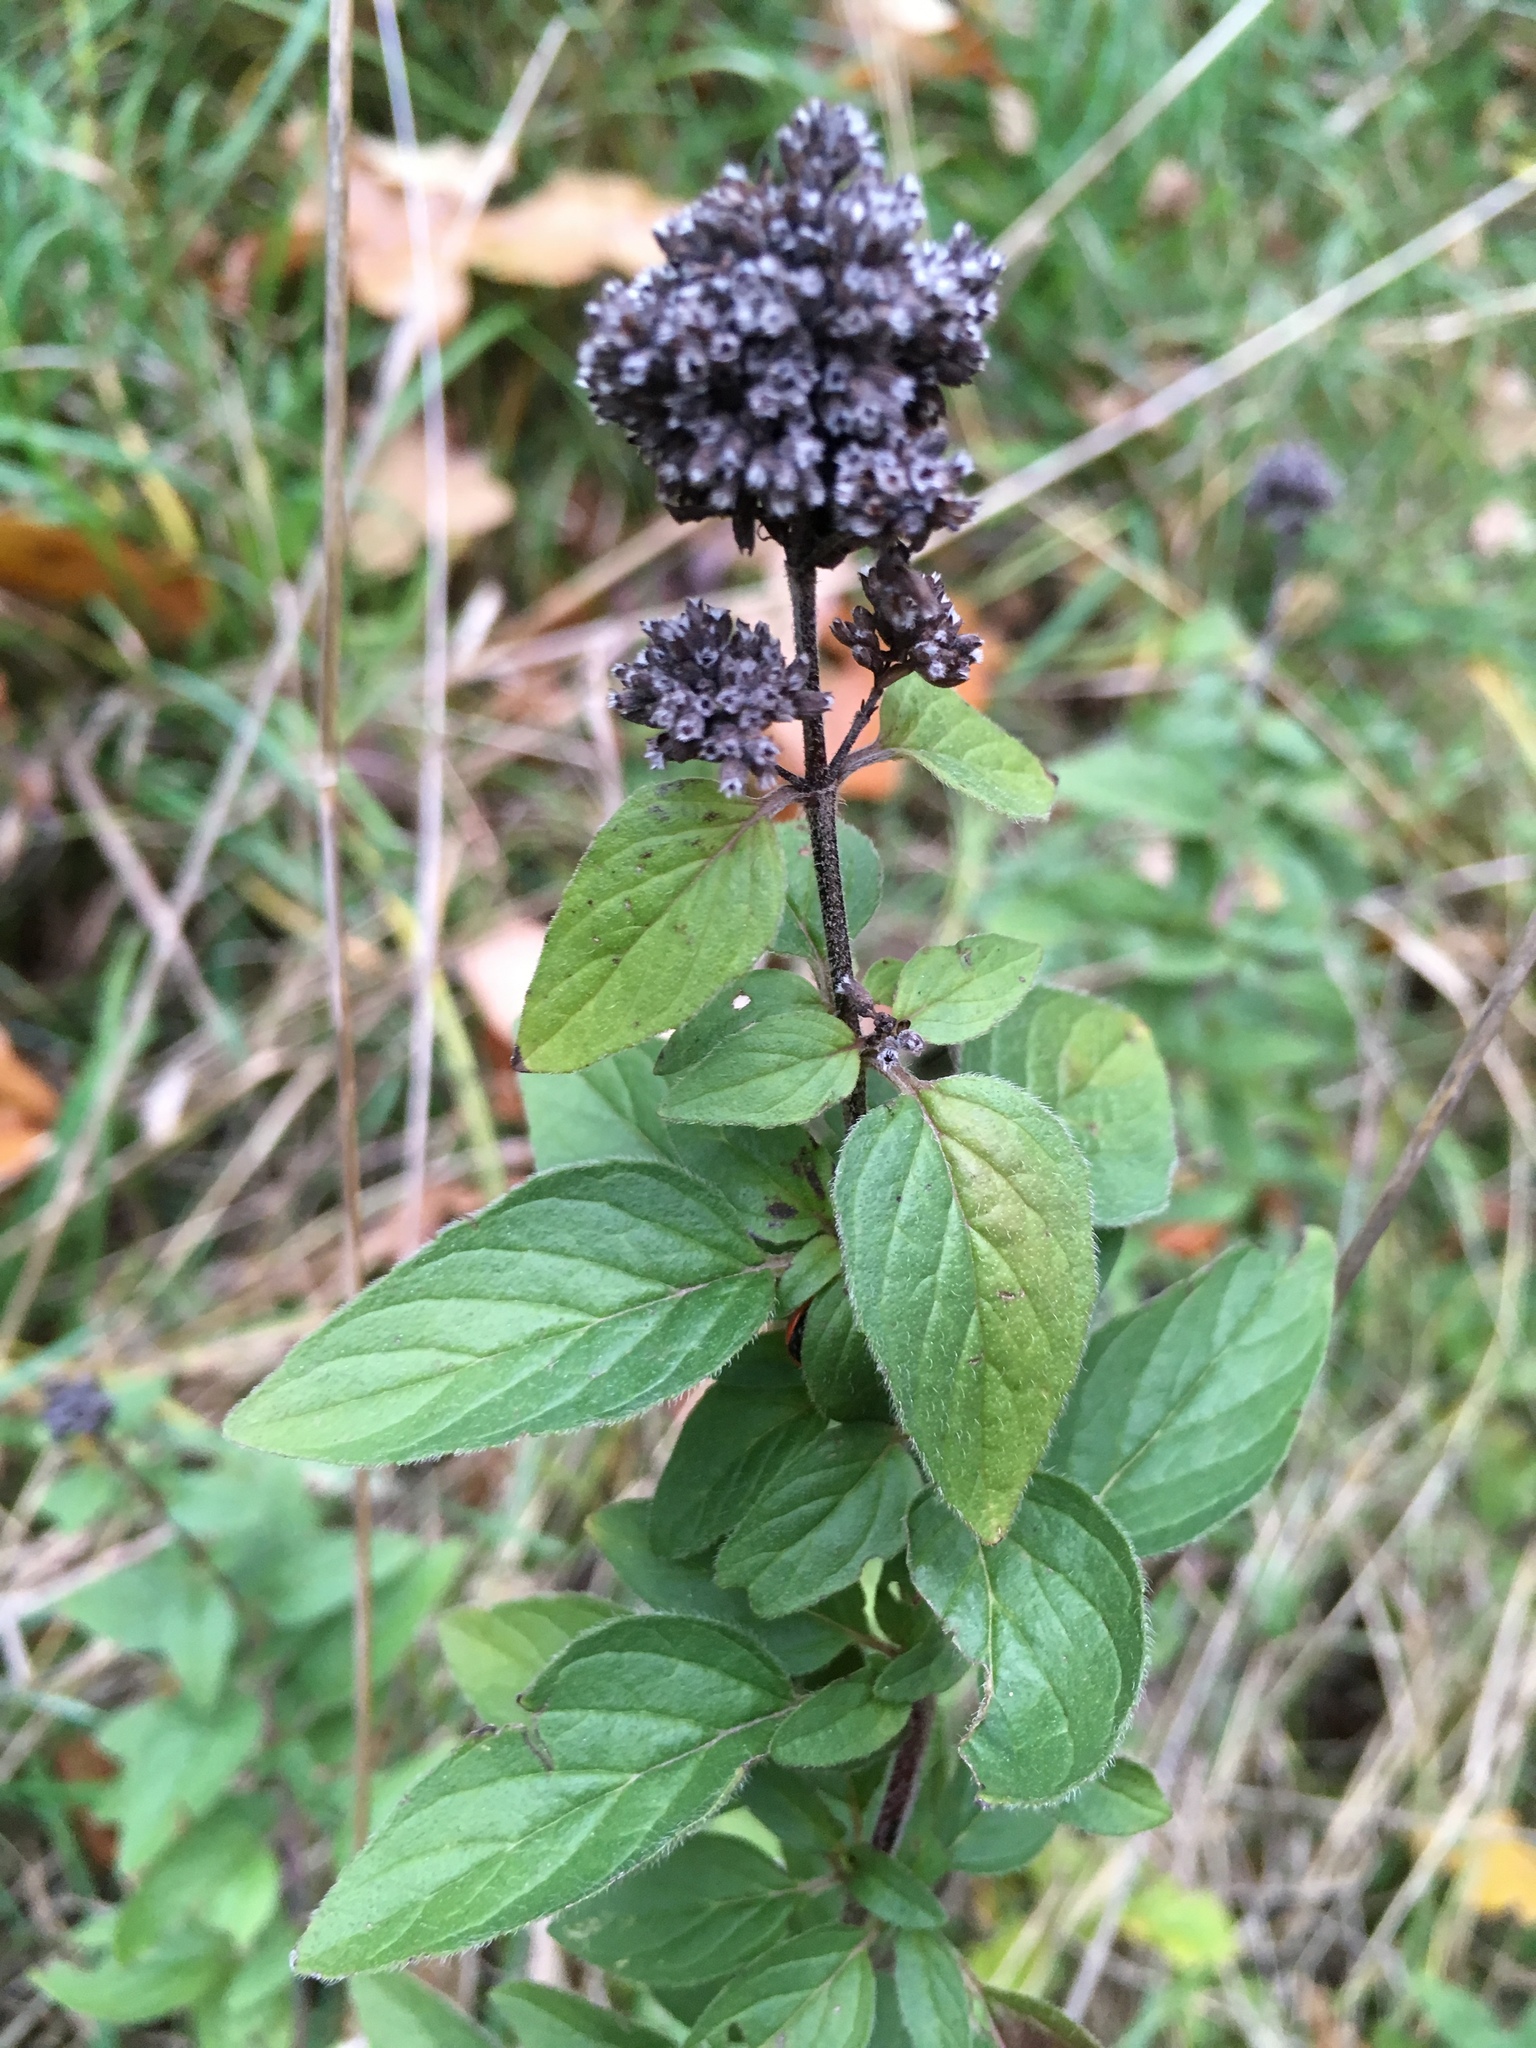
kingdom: Plantae
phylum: Tracheophyta
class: Magnoliopsida
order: Lamiales
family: Lamiaceae
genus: Origanum
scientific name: Origanum vulgare
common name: Wild marjoram
